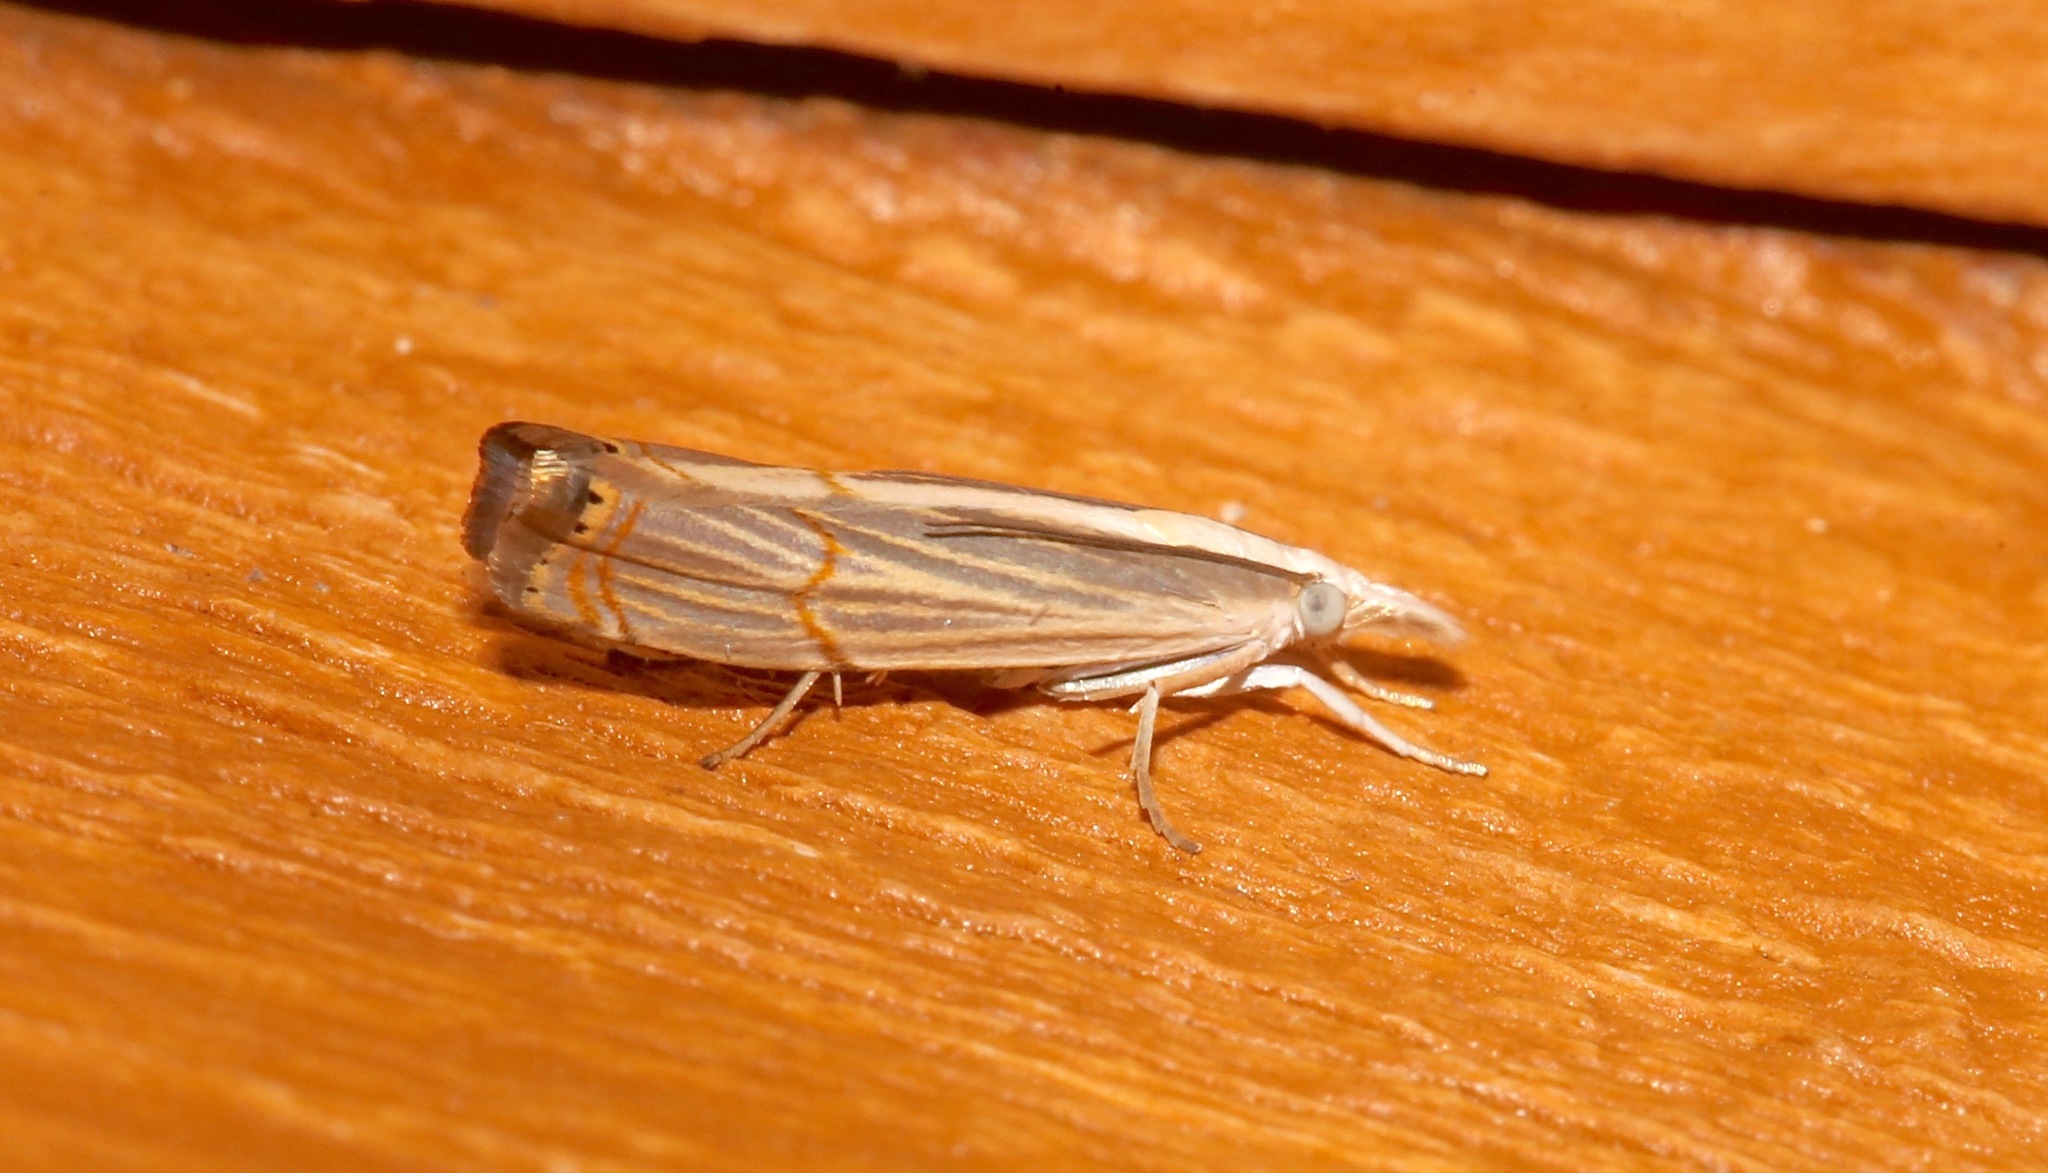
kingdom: Animalia
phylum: Arthropoda
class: Insecta
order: Lepidoptera
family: Crambidae
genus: Parapediasia
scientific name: Parapediasia decorellus
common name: Graceful grass-veneer
